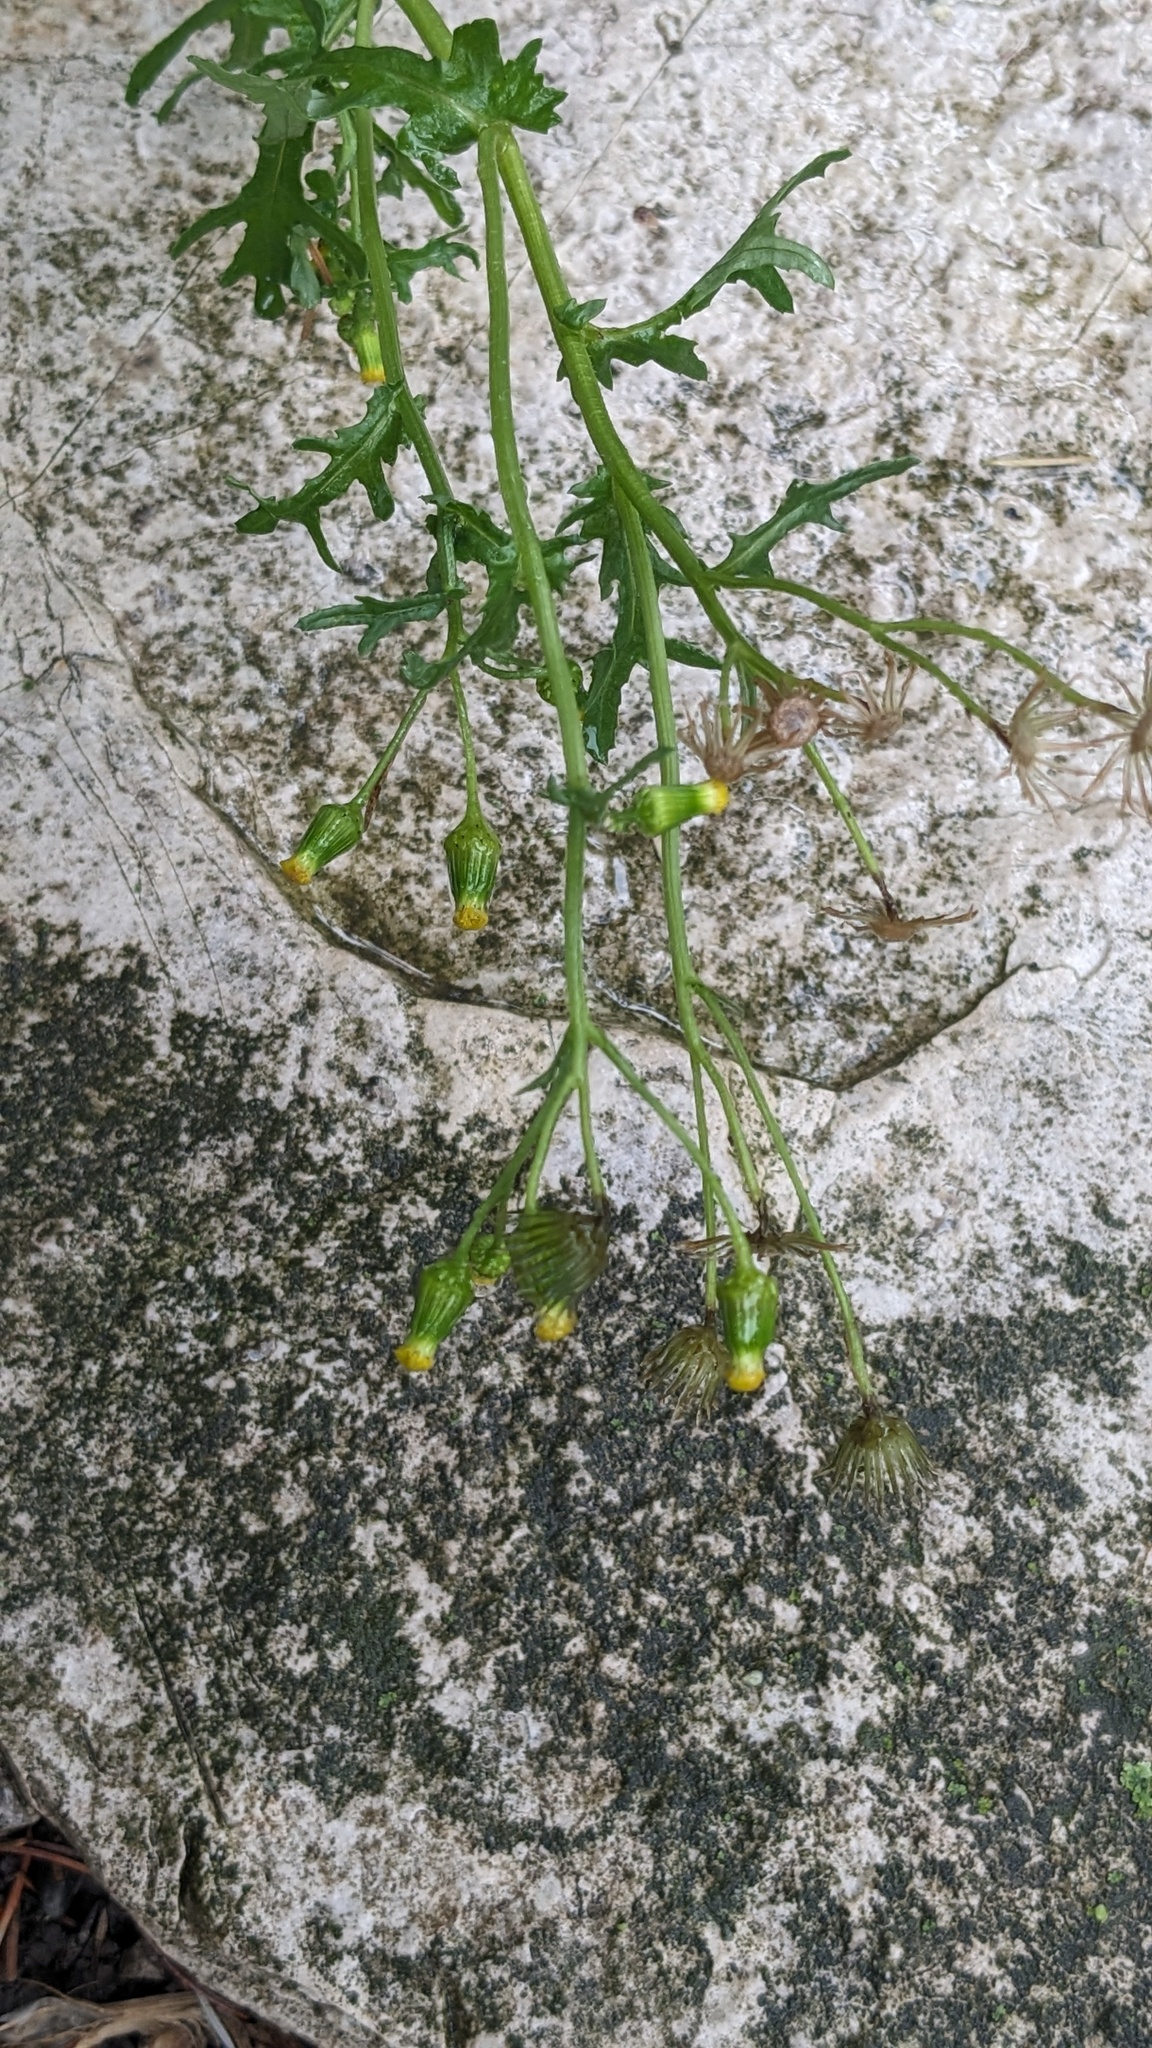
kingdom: Plantae
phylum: Tracheophyta
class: Magnoliopsida
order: Asterales
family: Asteraceae
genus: Senecio
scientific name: Senecio vulgaris
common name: Old-man-in-the-spring
